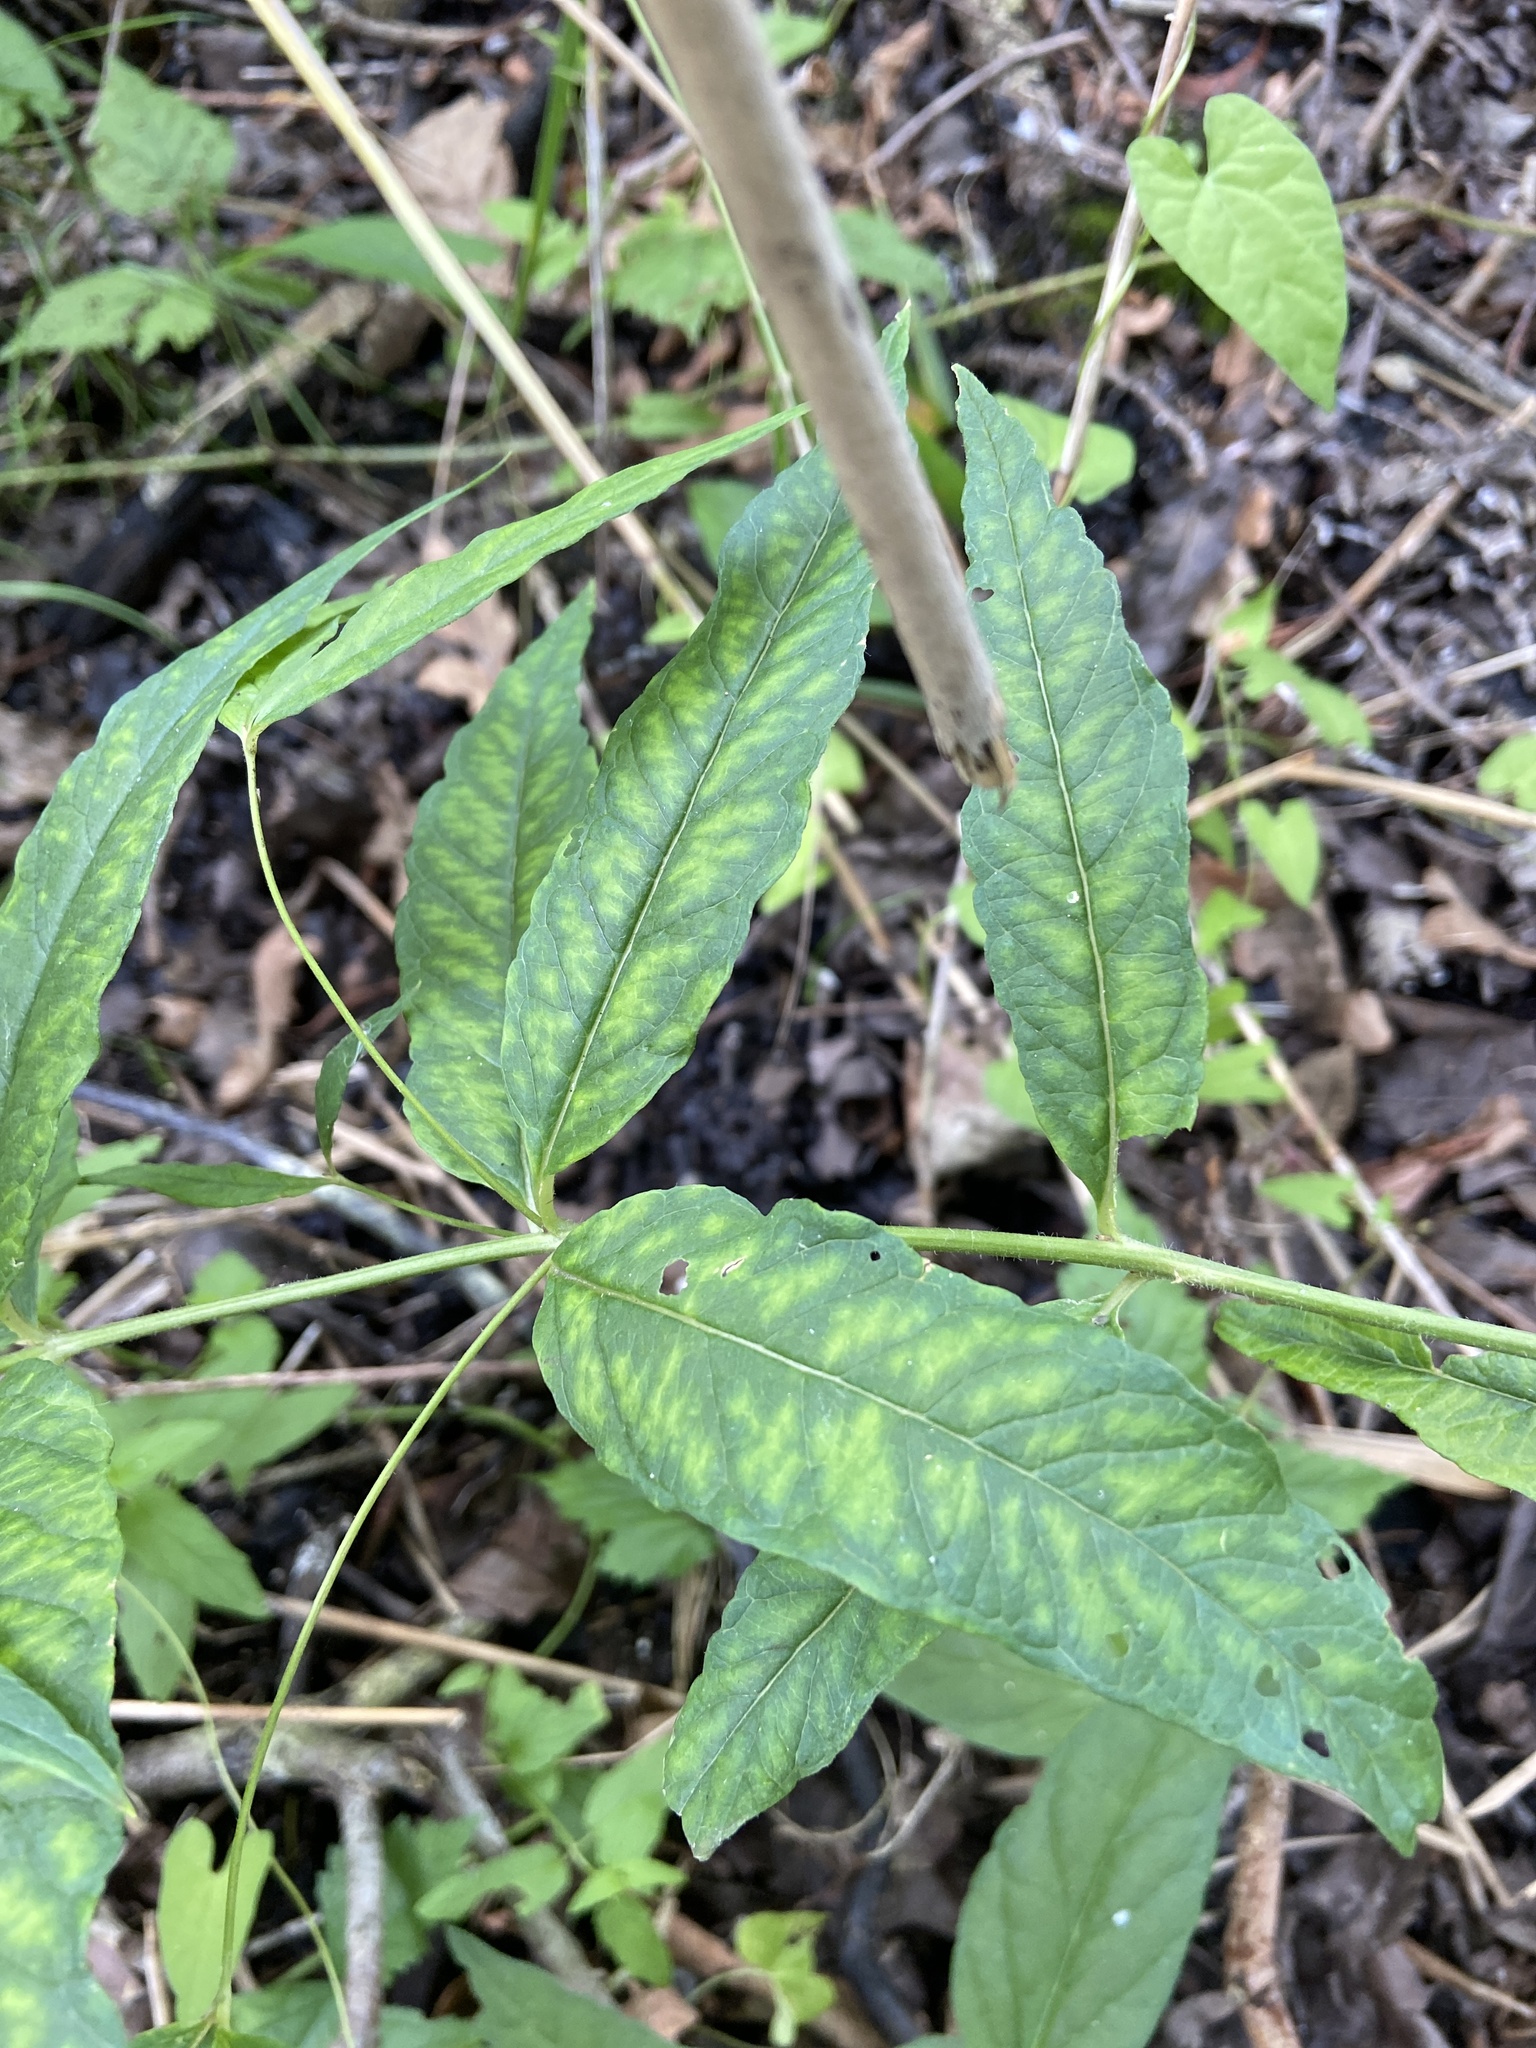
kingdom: Plantae
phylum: Tracheophyta
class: Magnoliopsida
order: Ericales
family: Primulaceae
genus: Lysimachia
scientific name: Lysimachia vulgaris
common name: Yellow loosestrife
